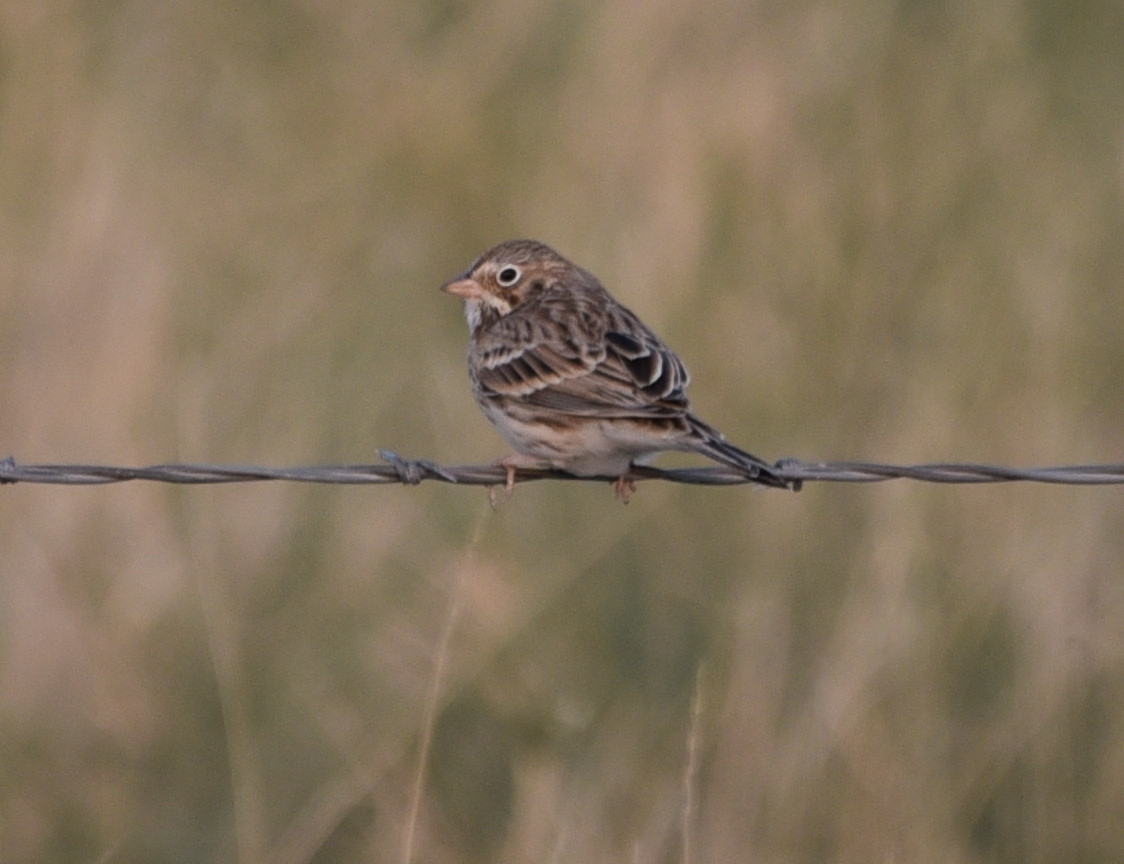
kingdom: Animalia
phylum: Chordata
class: Aves
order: Passeriformes
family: Passerellidae
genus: Pooecetes
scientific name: Pooecetes gramineus
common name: Vesper sparrow
